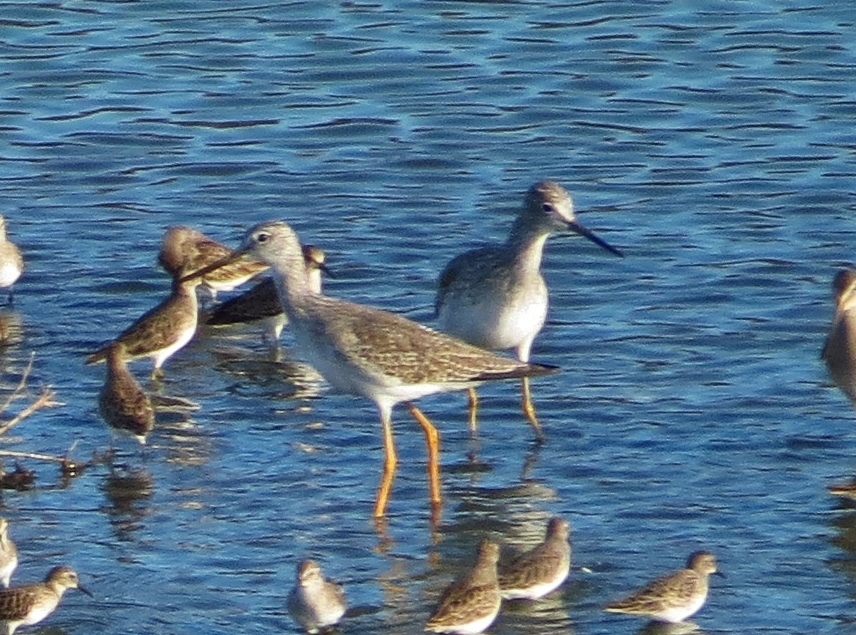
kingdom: Animalia
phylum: Chordata
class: Aves
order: Charadriiformes
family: Scolopacidae
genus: Tringa
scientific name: Tringa melanoleuca
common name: Greater yellowlegs
